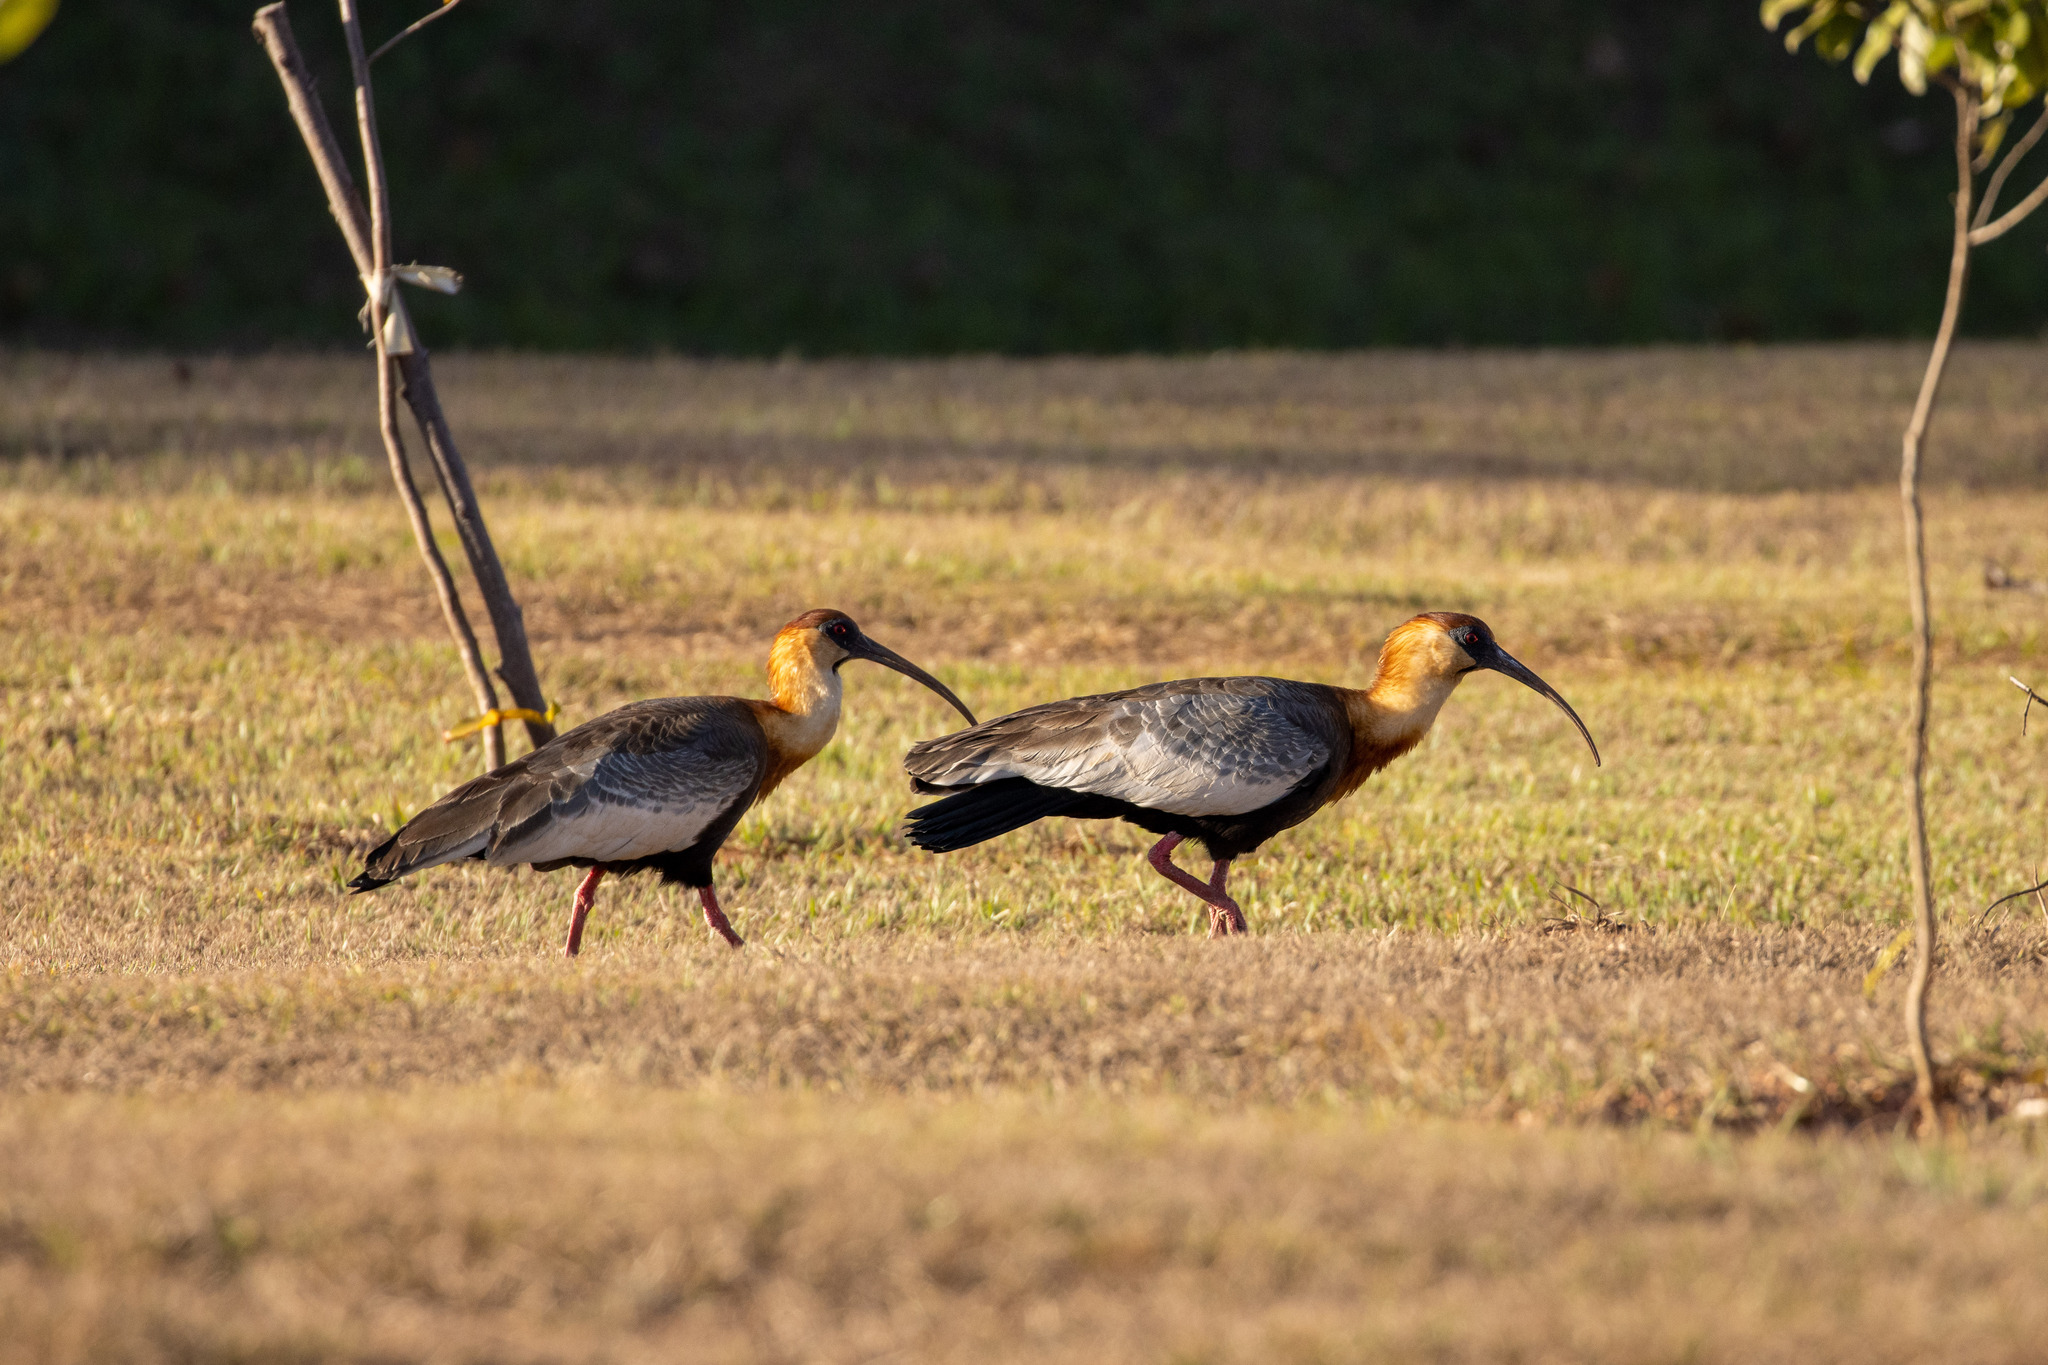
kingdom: Animalia
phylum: Chordata
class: Aves
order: Pelecaniformes
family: Threskiornithidae
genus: Theristicus
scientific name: Theristicus caudatus
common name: Buff-necked ibis
